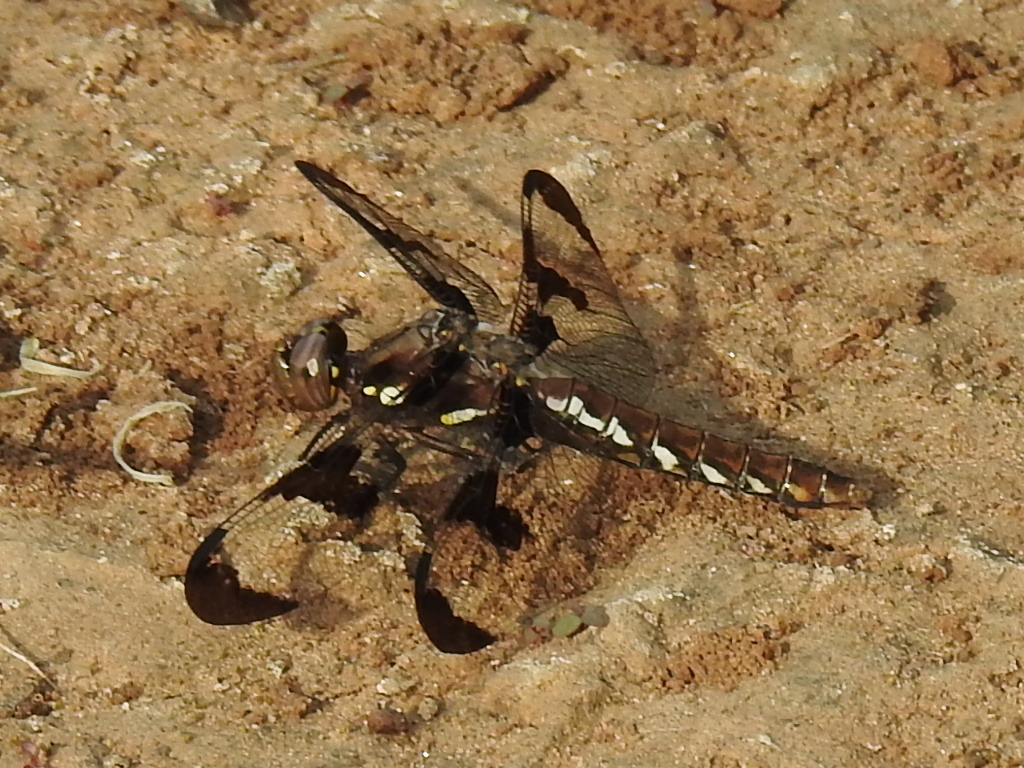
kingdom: Animalia
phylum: Arthropoda
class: Insecta
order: Odonata
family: Libellulidae
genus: Plathemis
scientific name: Plathemis lydia
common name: Common whitetail
